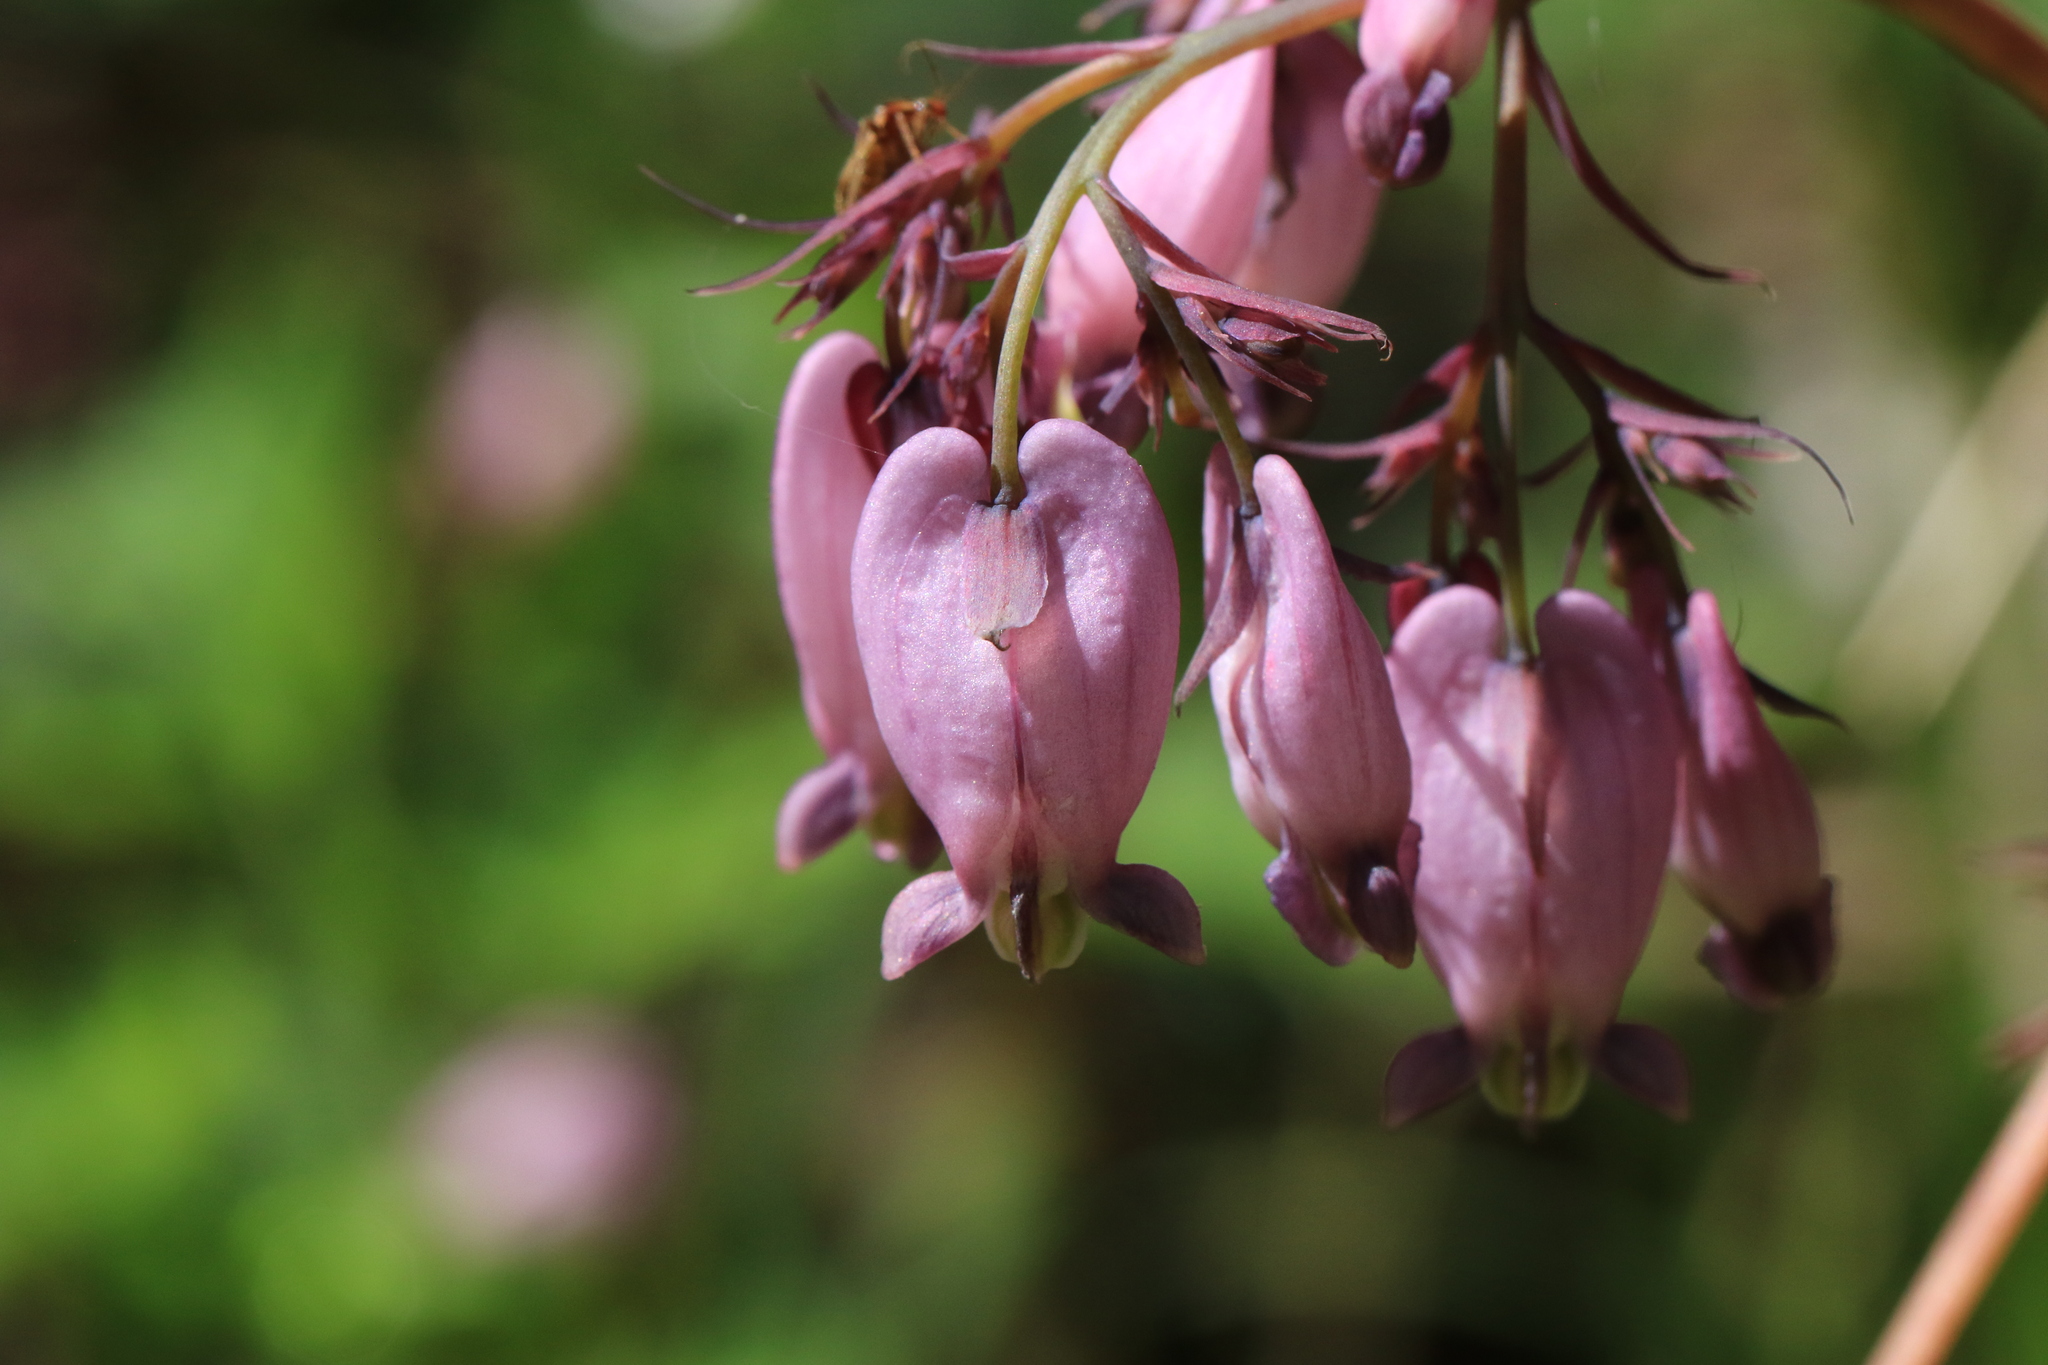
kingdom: Plantae
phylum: Tracheophyta
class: Magnoliopsida
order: Ranunculales
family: Papaveraceae
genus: Dicentra
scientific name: Dicentra formosa
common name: Bleeding-heart
